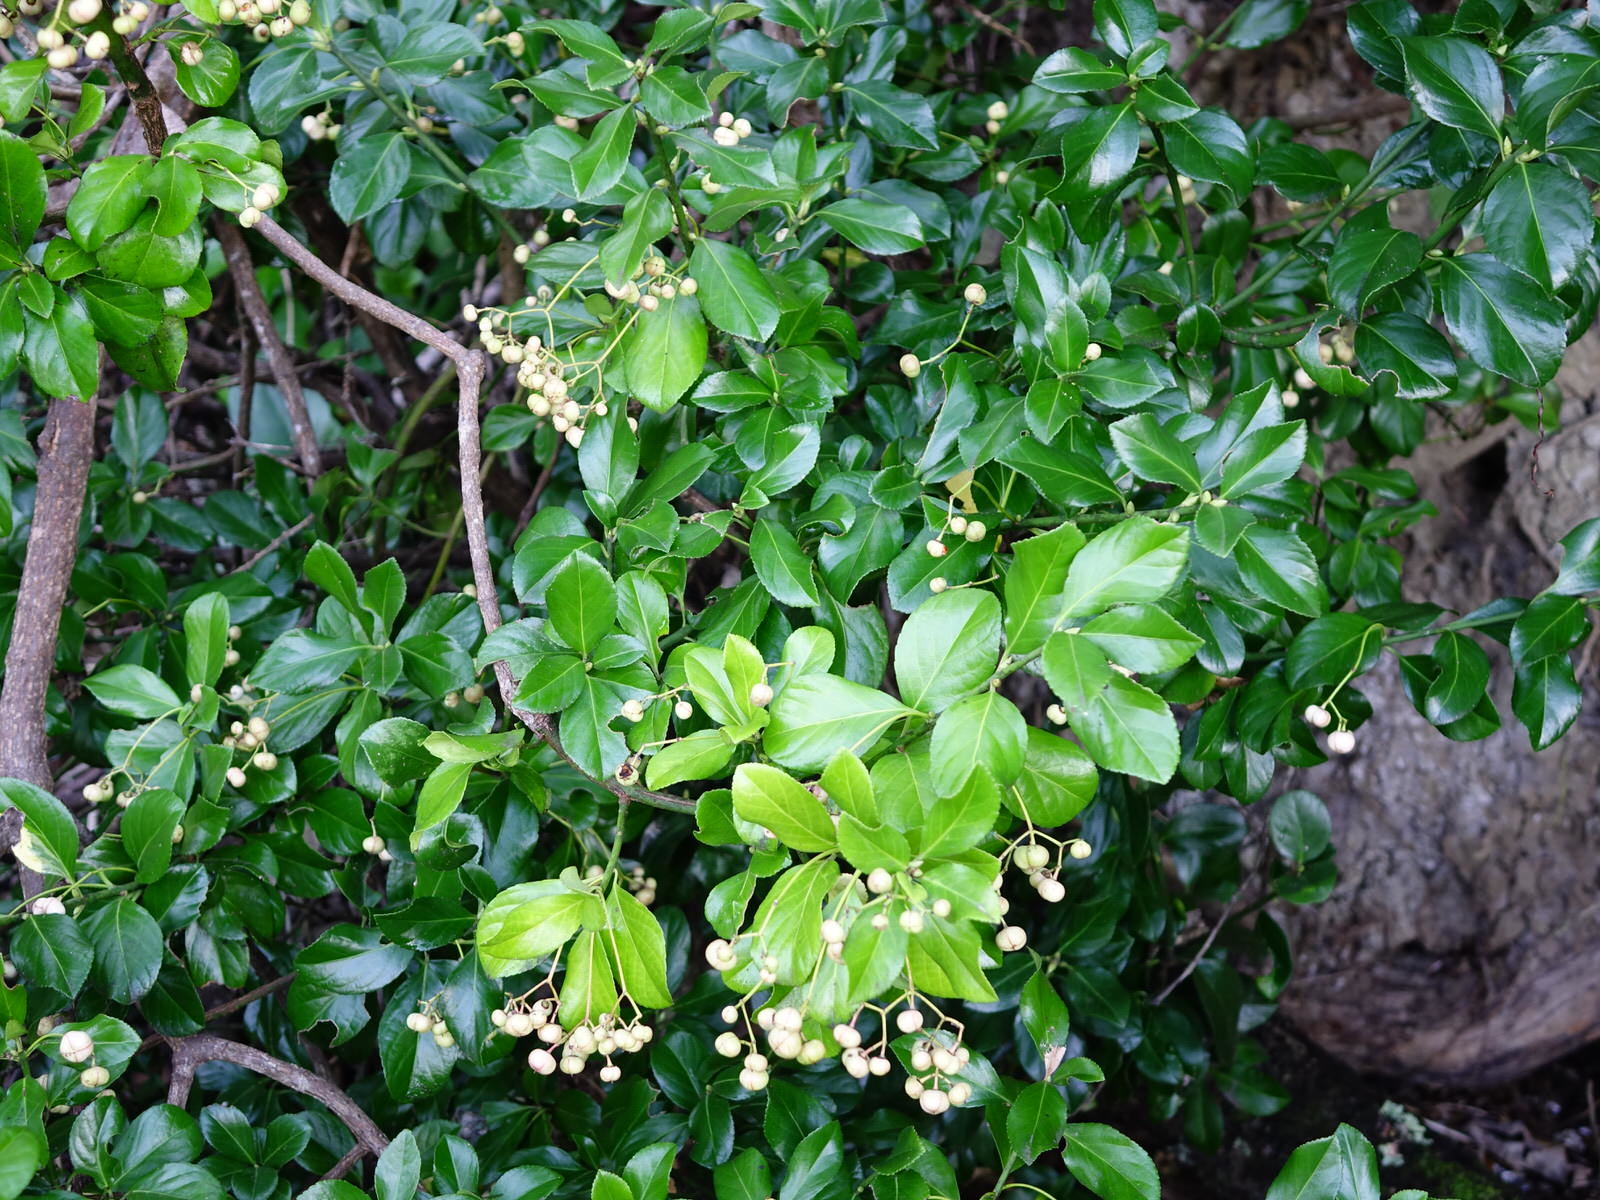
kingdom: Plantae
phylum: Tracheophyta
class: Magnoliopsida
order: Celastrales
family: Celastraceae
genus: Euonymus
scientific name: Euonymus japonicus
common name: Japanese spindletree
